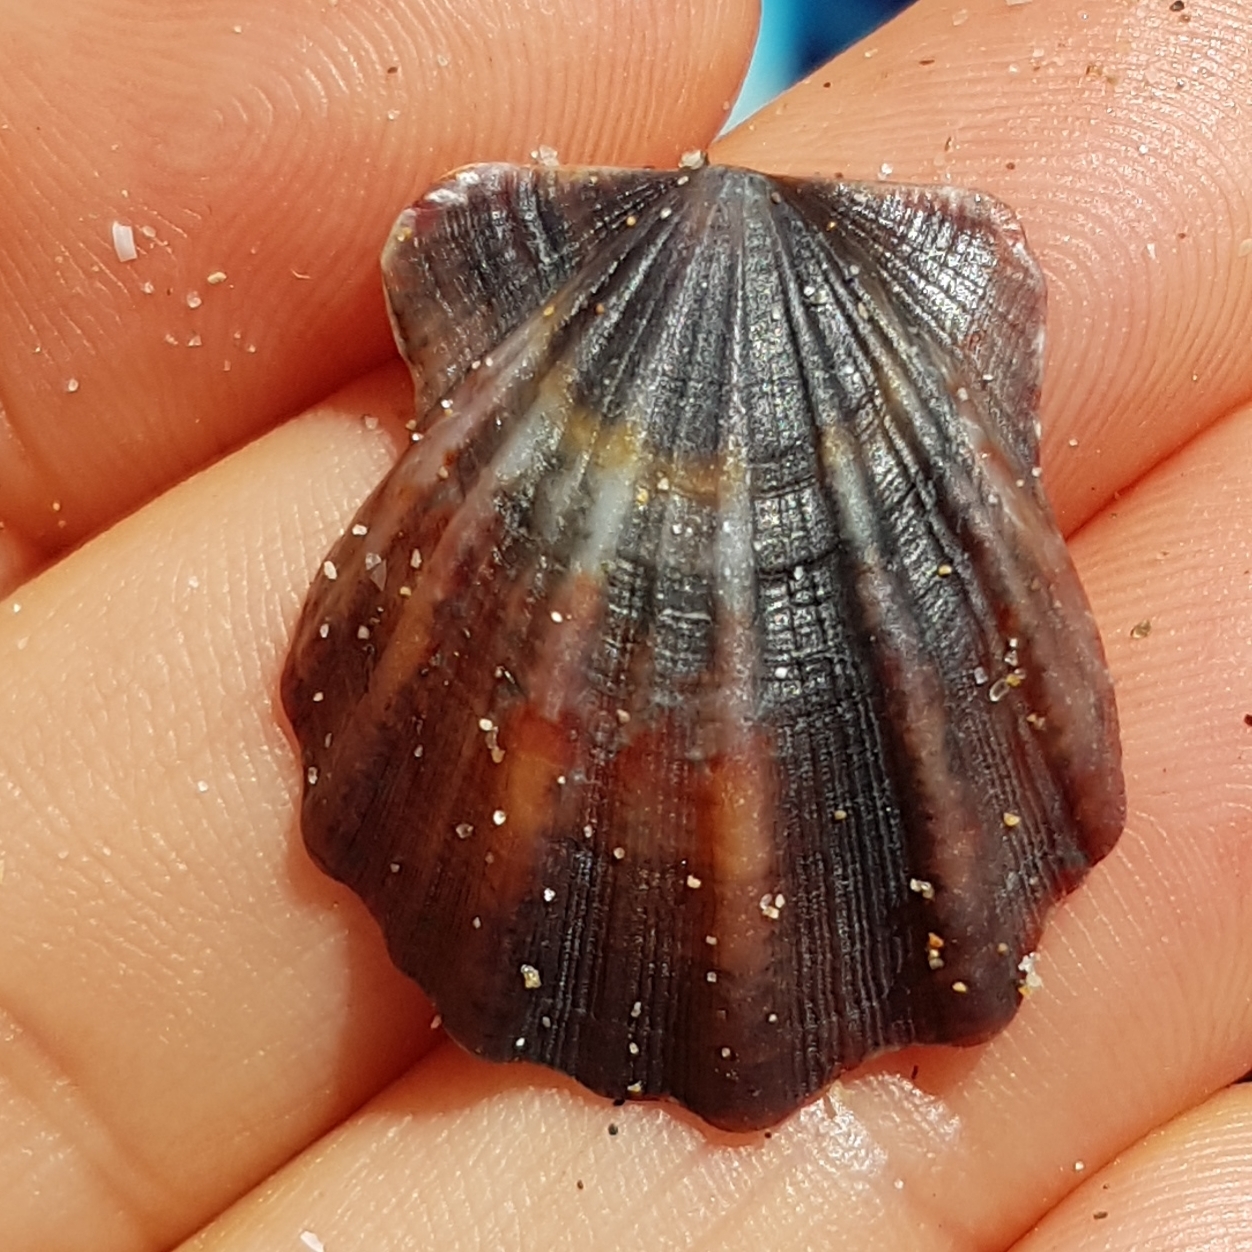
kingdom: Animalia
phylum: Mollusca
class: Bivalvia
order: Pectinida
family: Pectinidae
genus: Flexopecten
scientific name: Flexopecten glaber
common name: Smooth scallop
